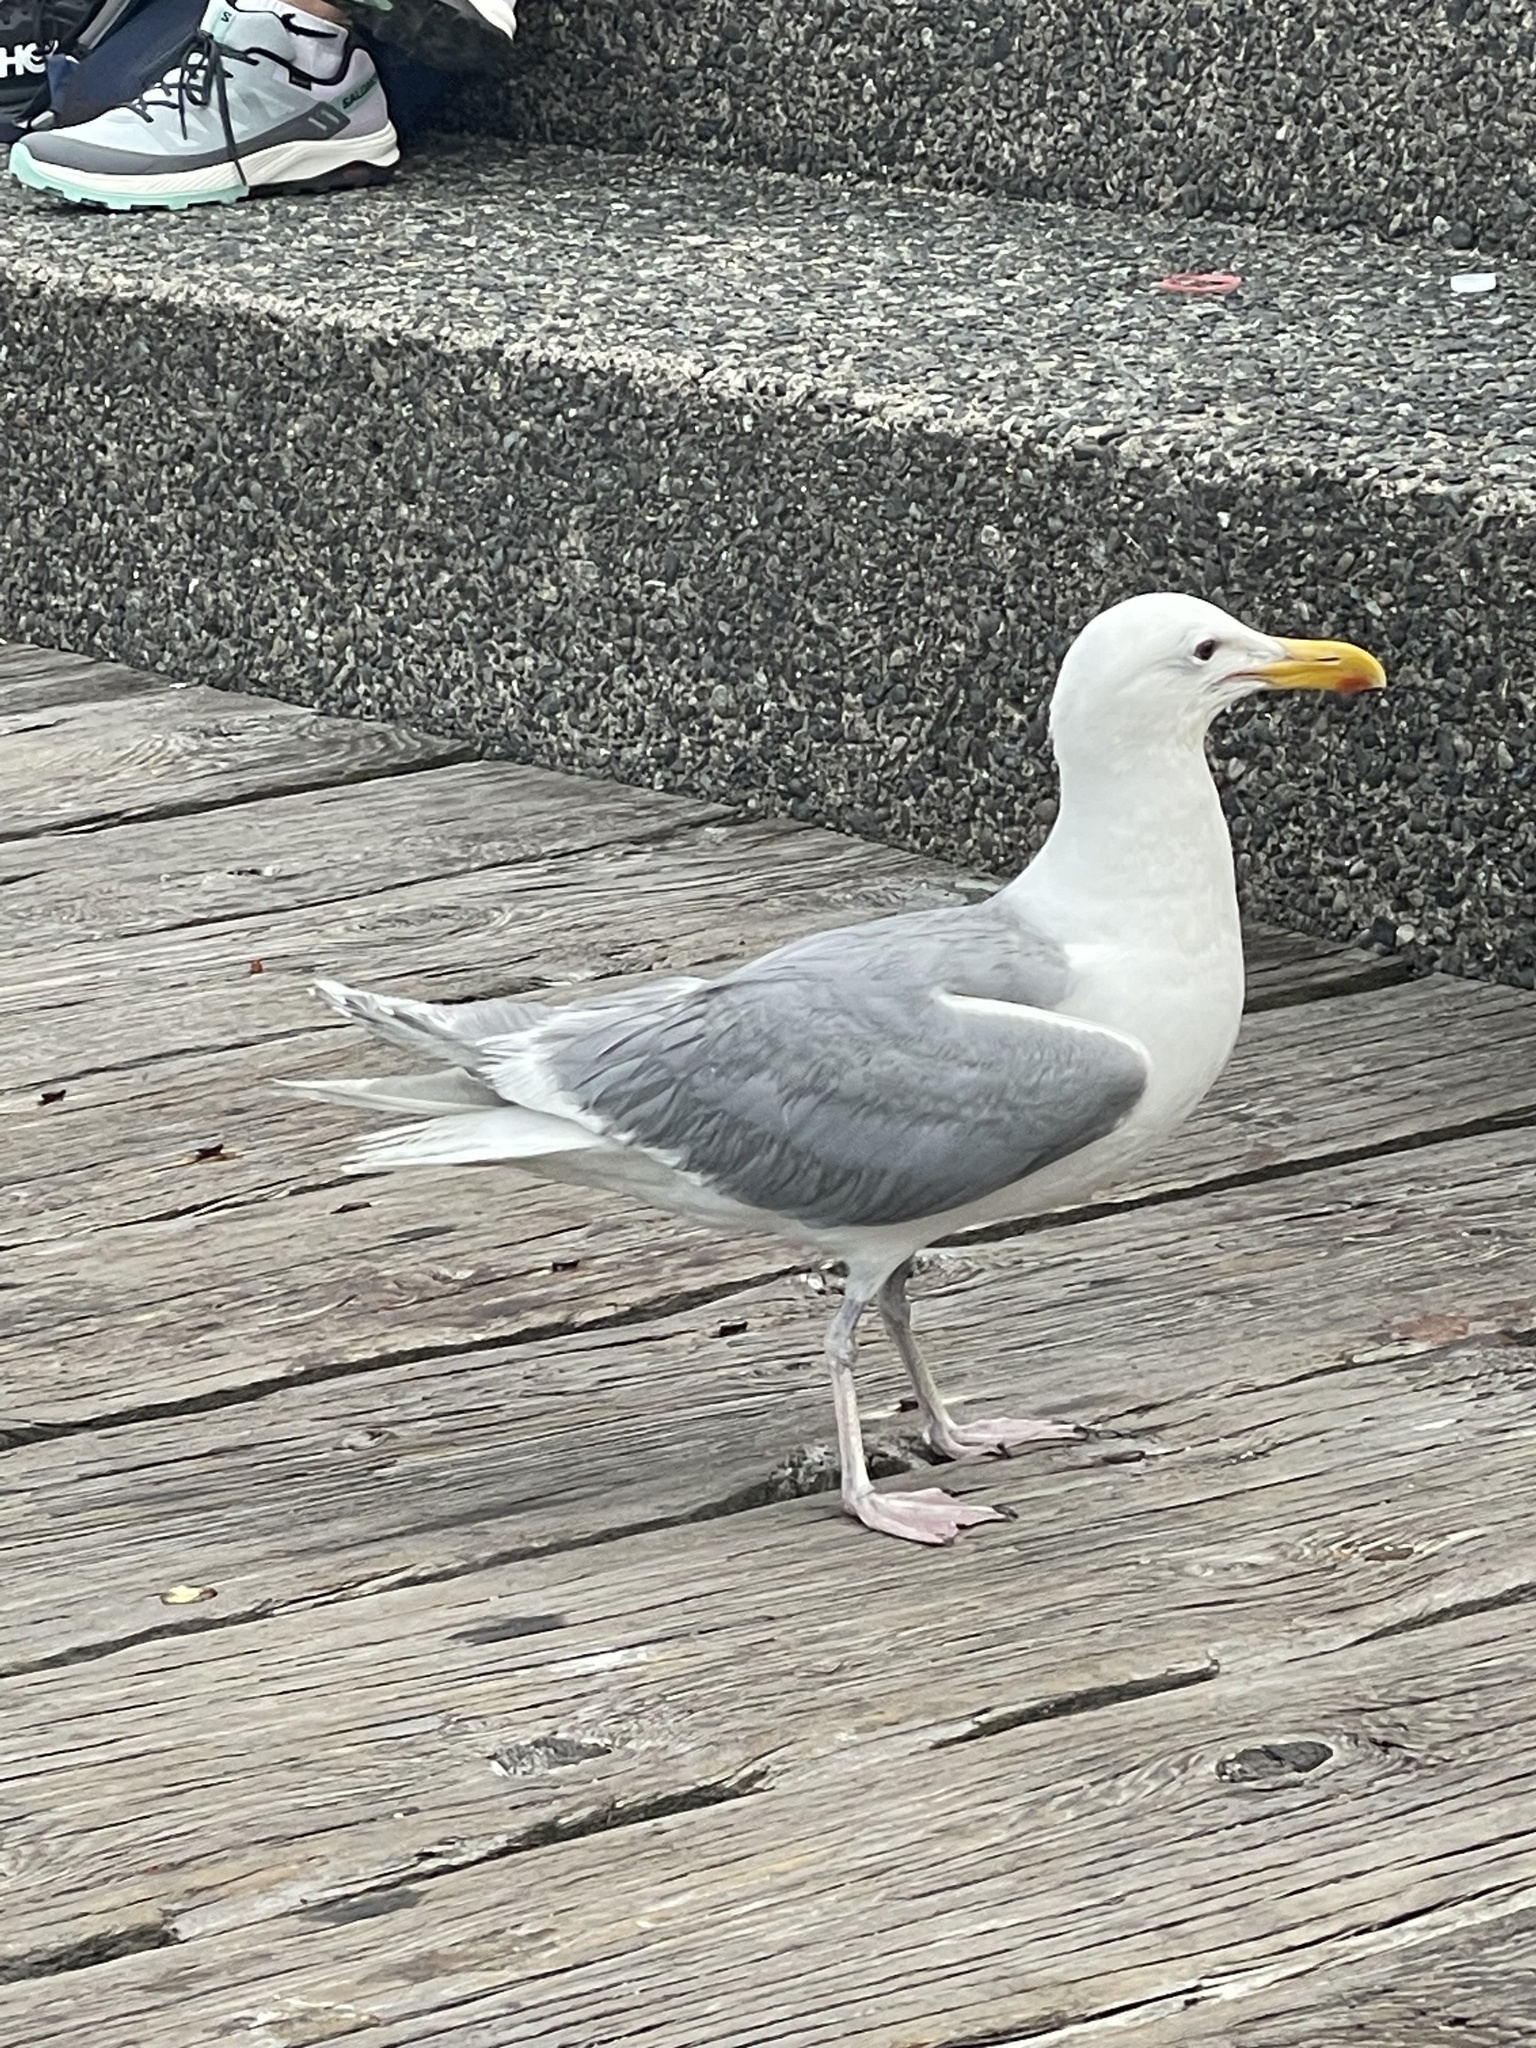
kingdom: Animalia
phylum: Chordata
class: Aves
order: Charadriiformes
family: Laridae
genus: Larus
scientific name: Larus glaucescens
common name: Glaucous-winged gull
